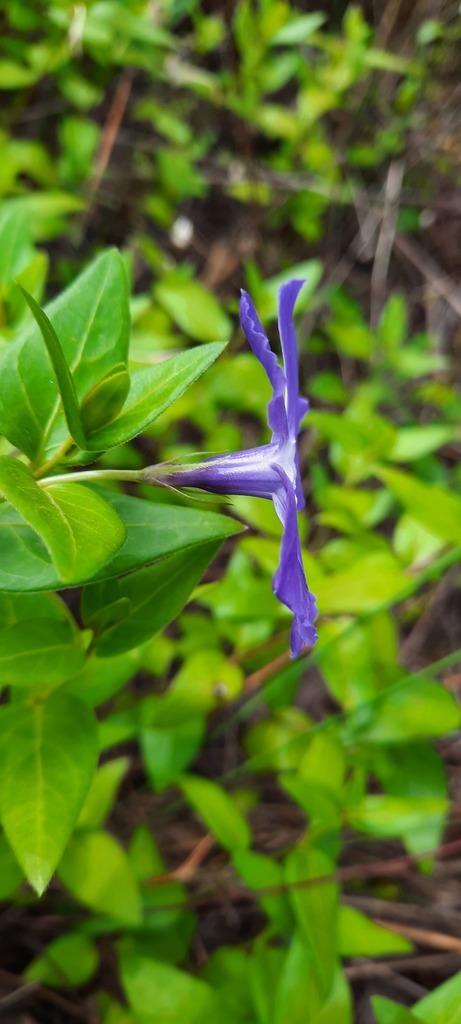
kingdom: Plantae
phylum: Tracheophyta
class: Magnoliopsida
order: Gentianales
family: Apocynaceae
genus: Vinca
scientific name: Vinca major
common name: Greater periwinkle
